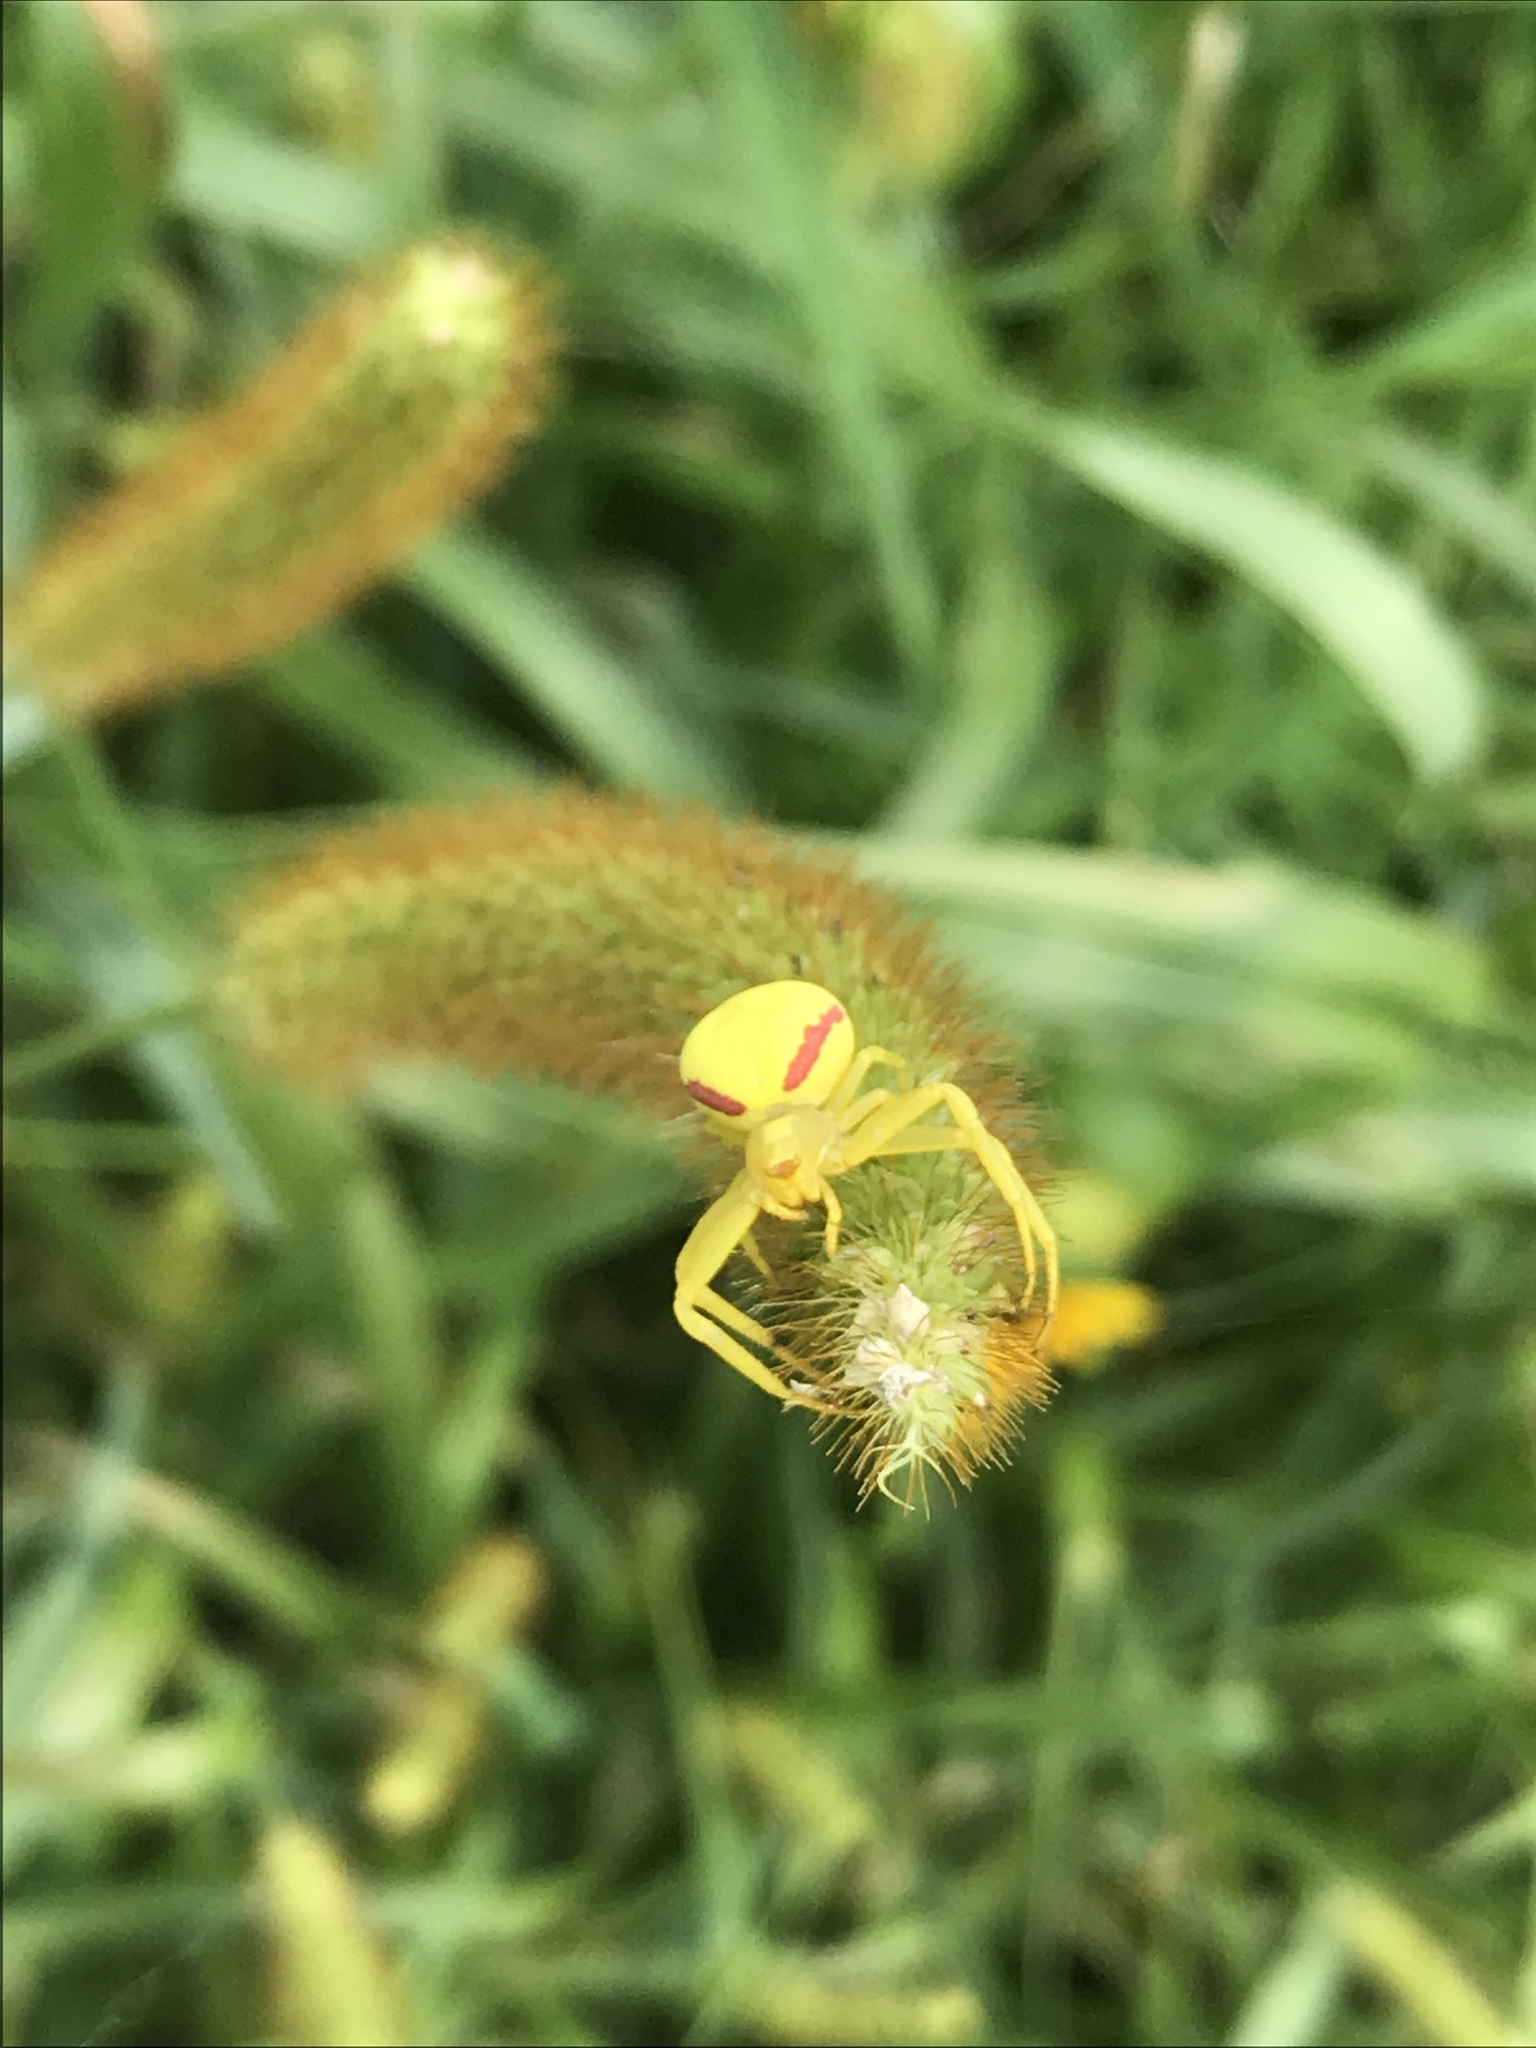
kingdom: Animalia
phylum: Arthropoda
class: Arachnida
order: Araneae
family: Thomisidae
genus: Misumena
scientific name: Misumena vatia
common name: Goldenrod crab spider
